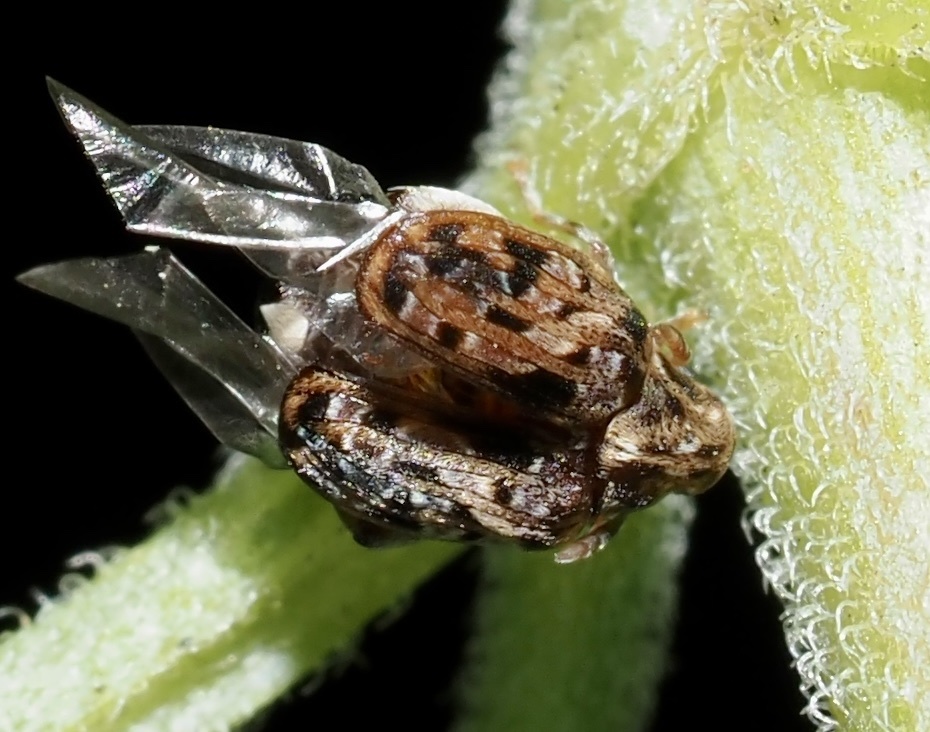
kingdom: Animalia
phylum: Arthropoda
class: Insecta
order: Coleoptera
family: Chrysomelidae
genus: Gibbobruchus
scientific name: Gibbobruchus mimus
